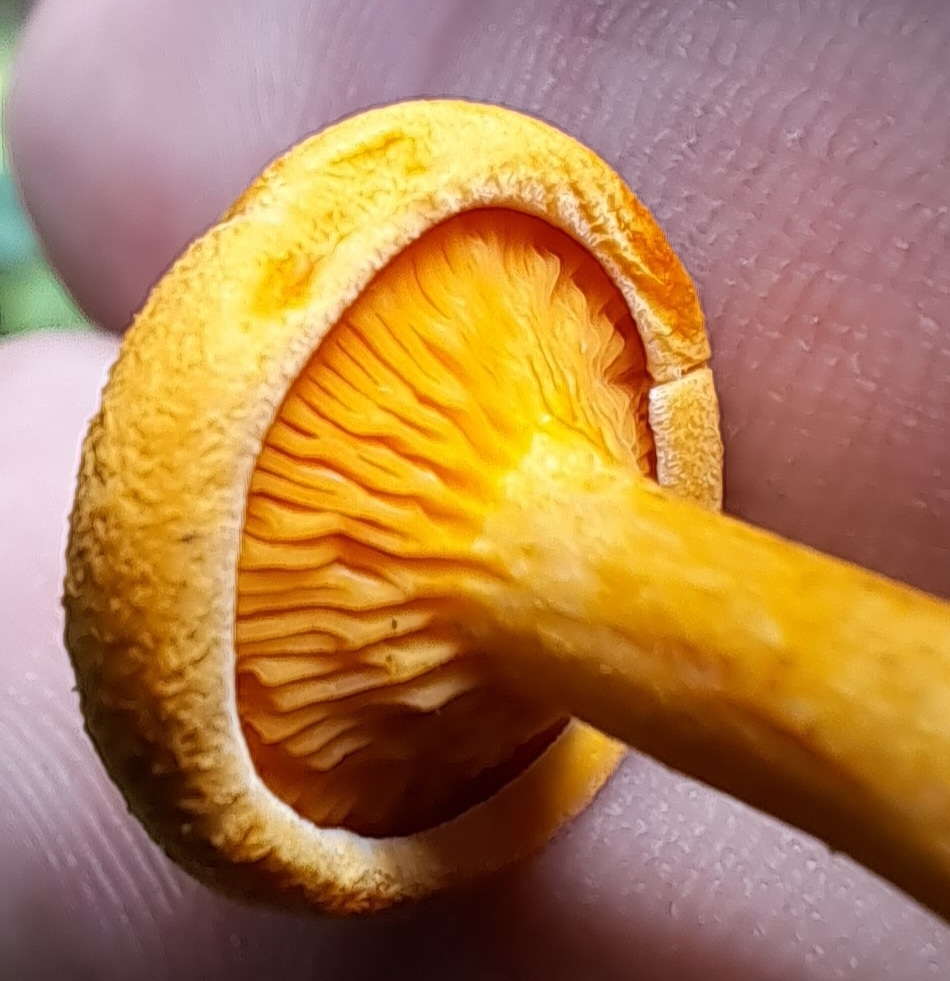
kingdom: Fungi
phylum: Basidiomycota
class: Agaricomycetes
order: Boletales
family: Hygrophoropsidaceae
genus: Hygrophoropsis
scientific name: Hygrophoropsis aurantiaca
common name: False chanterelle
